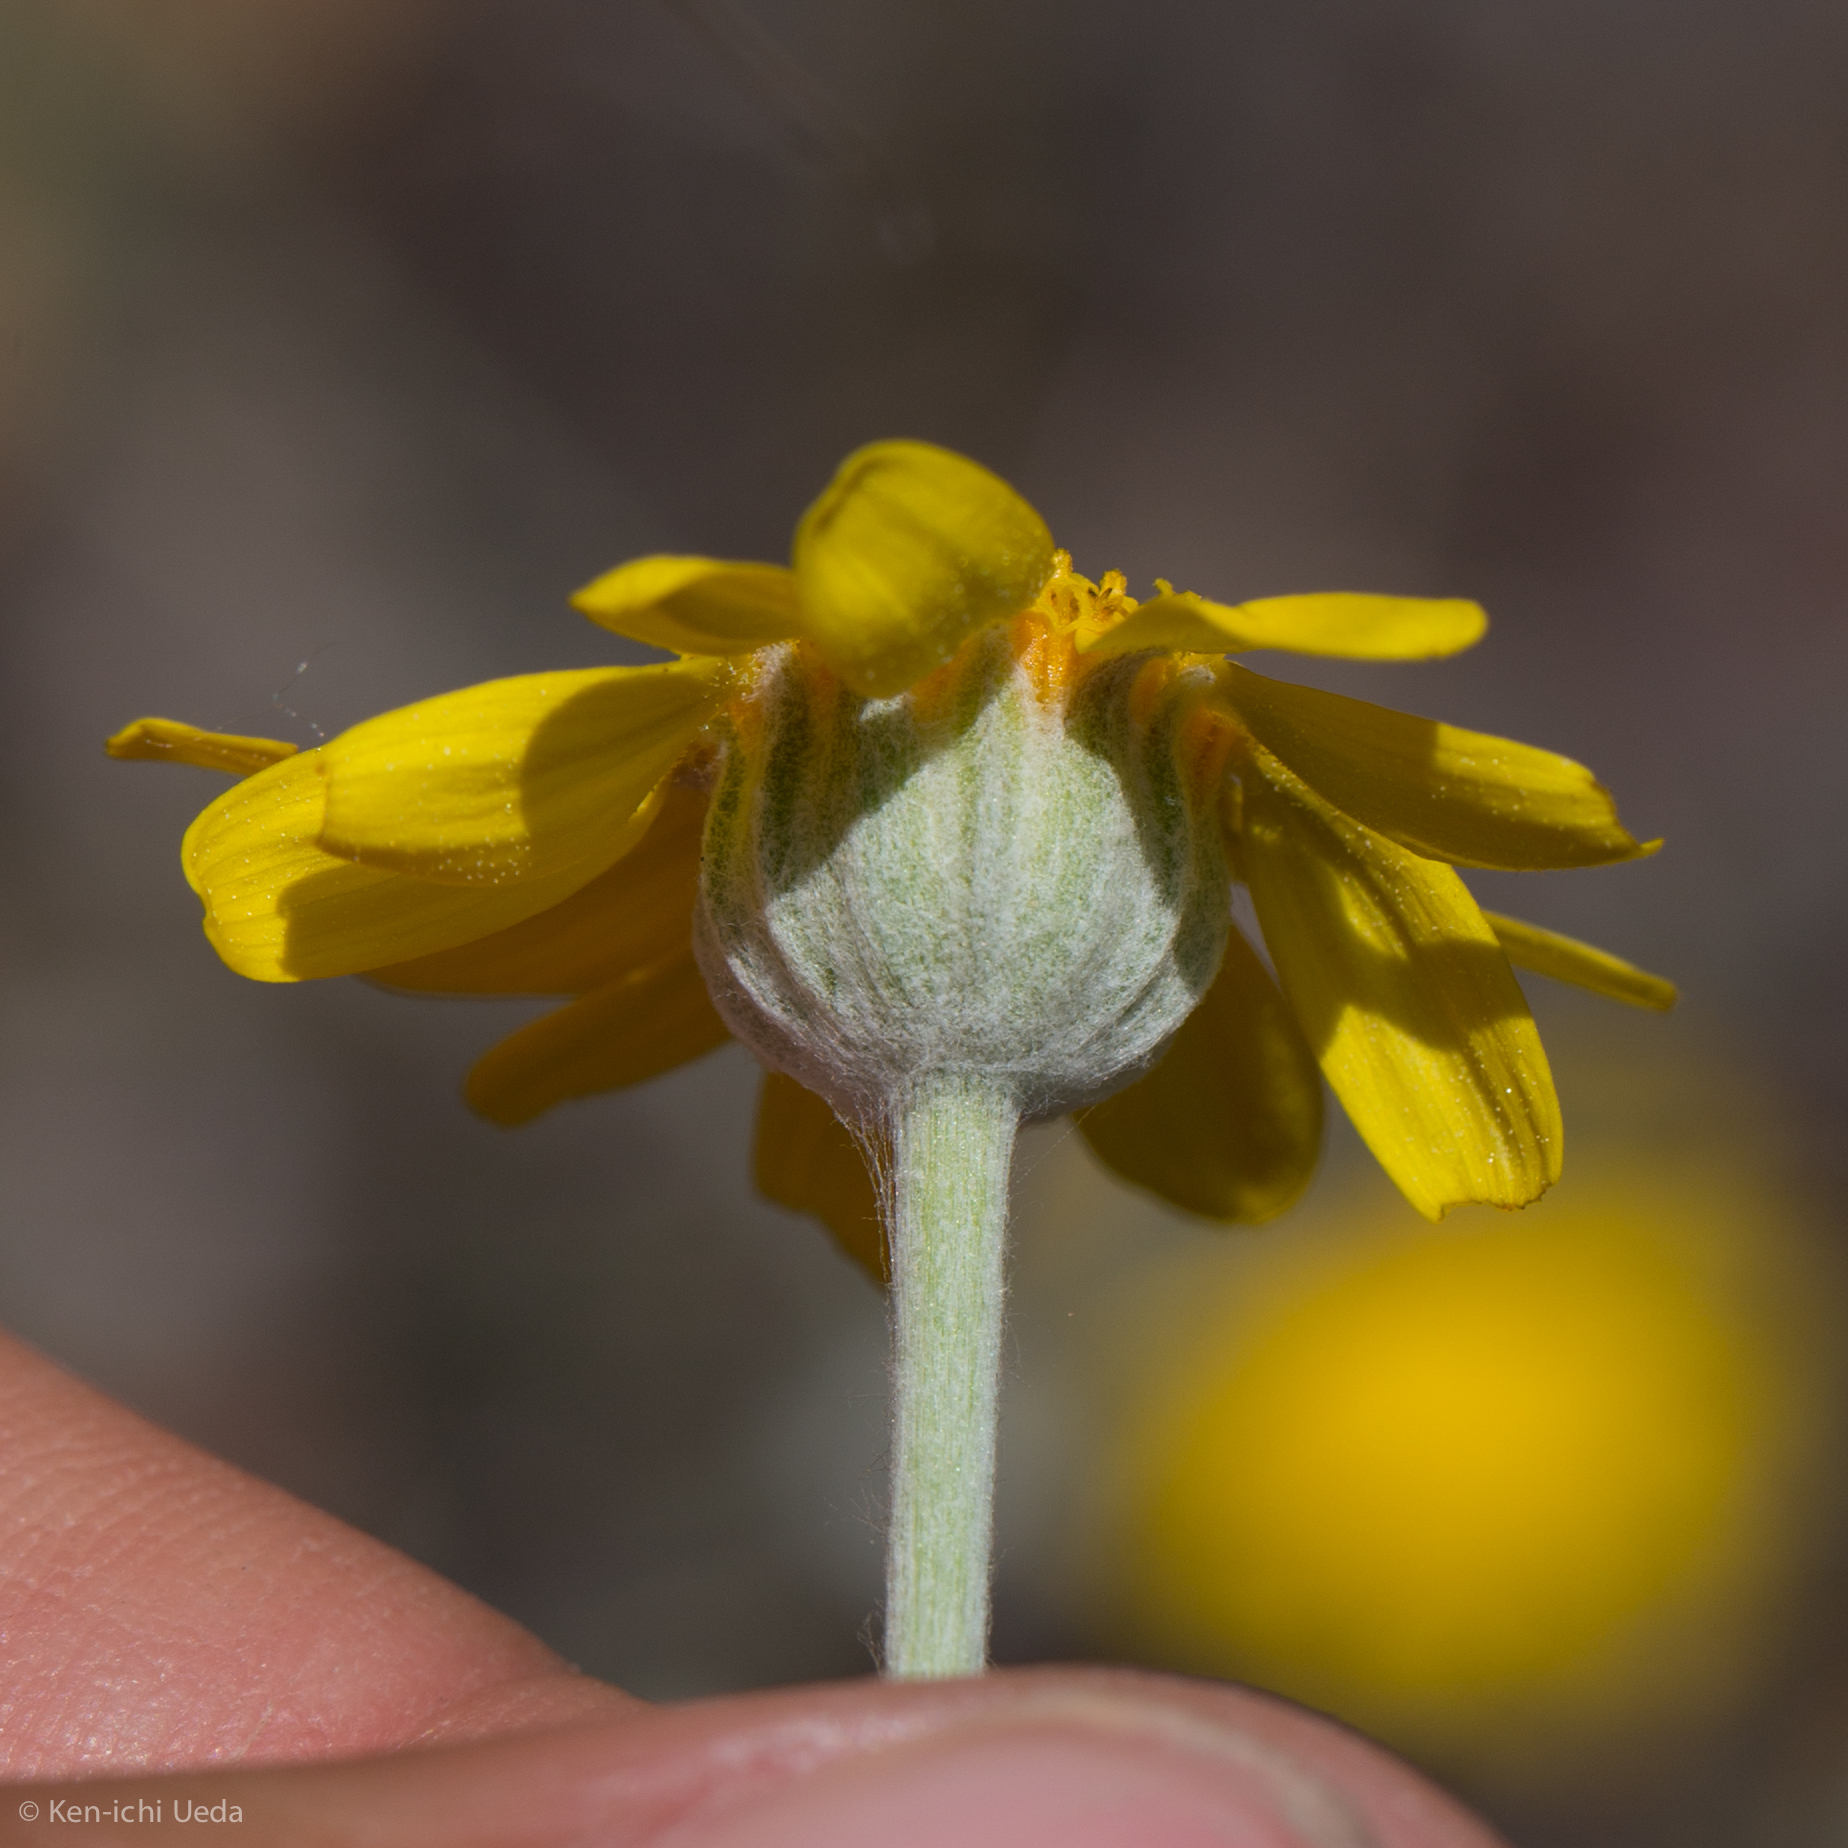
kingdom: Plantae
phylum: Tracheophyta
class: Magnoliopsida
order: Asterales
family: Asteraceae
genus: Eriophyllum
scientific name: Eriophyllum lanatum
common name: Common woolly-sunflower
